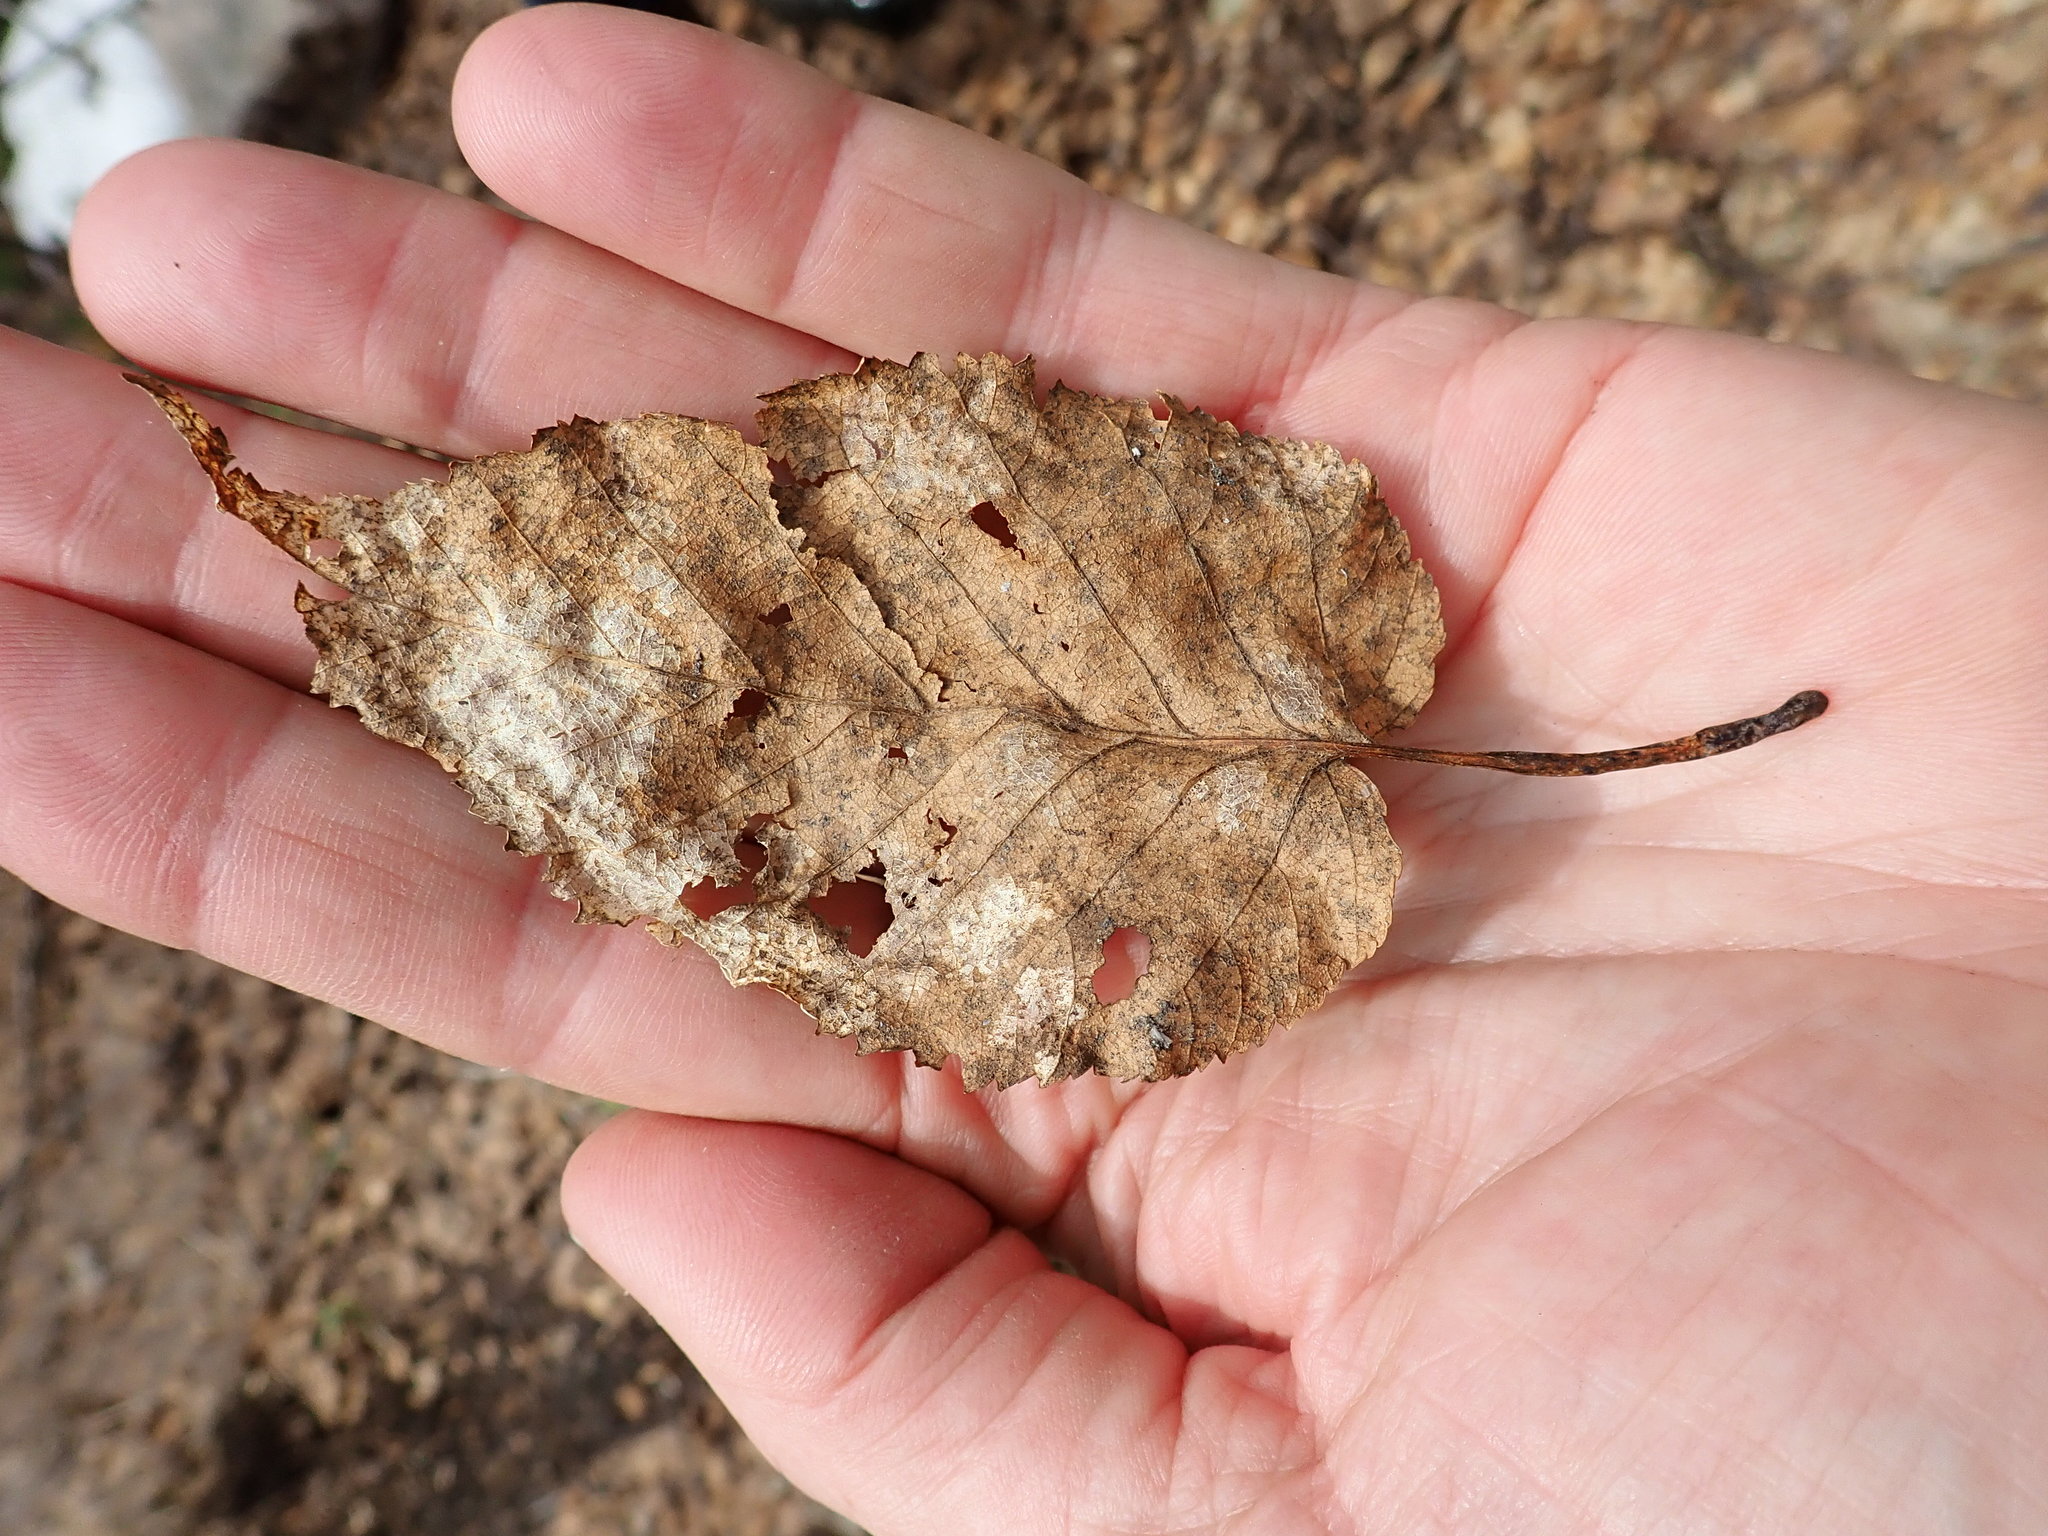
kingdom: Plantae
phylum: Tracheophyta
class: Magnoliopsida
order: Fagales
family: Betulaceae
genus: Betula
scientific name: Betula cordifolia
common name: Mountain white birch
